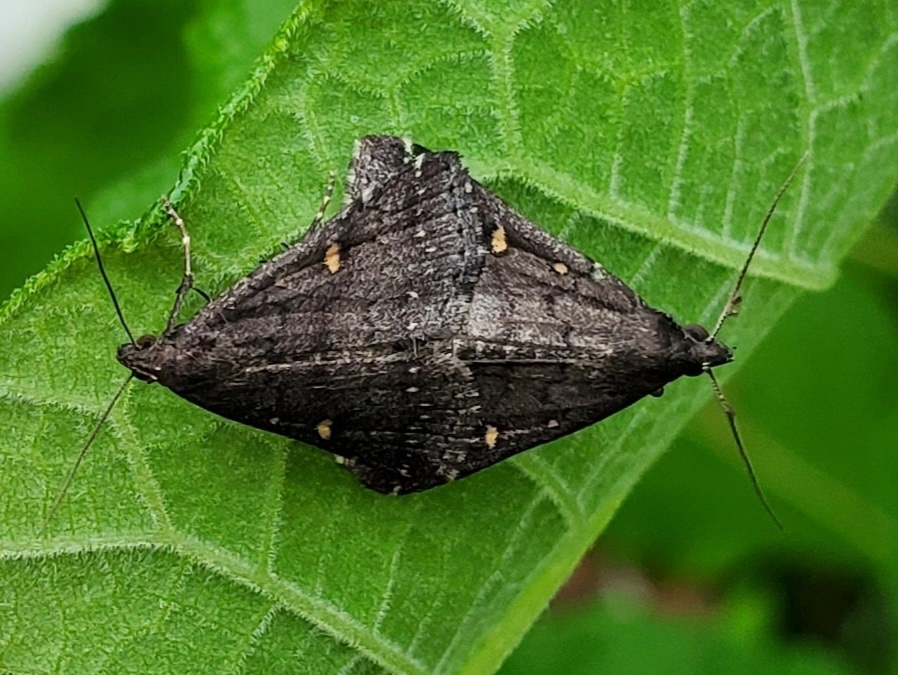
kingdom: Animalia
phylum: Arthropoda
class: Insecta
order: Lepidoptera
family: Erebidae
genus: Tetanolita
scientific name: Tetanolita mynesalis
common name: Smoky tetanolita moth
